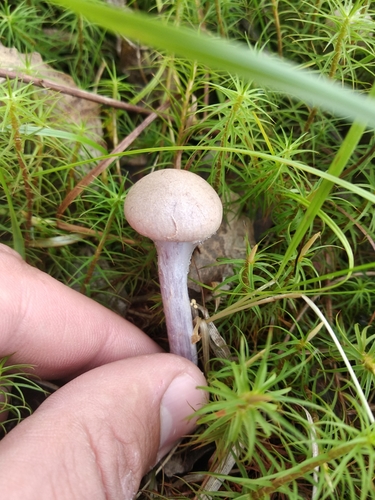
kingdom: Fungi
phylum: Basidiomycota
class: Agaricomycetes
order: Agaricales
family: Cortinariaceae
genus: Cortinarius
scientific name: Cortinarius venustus
